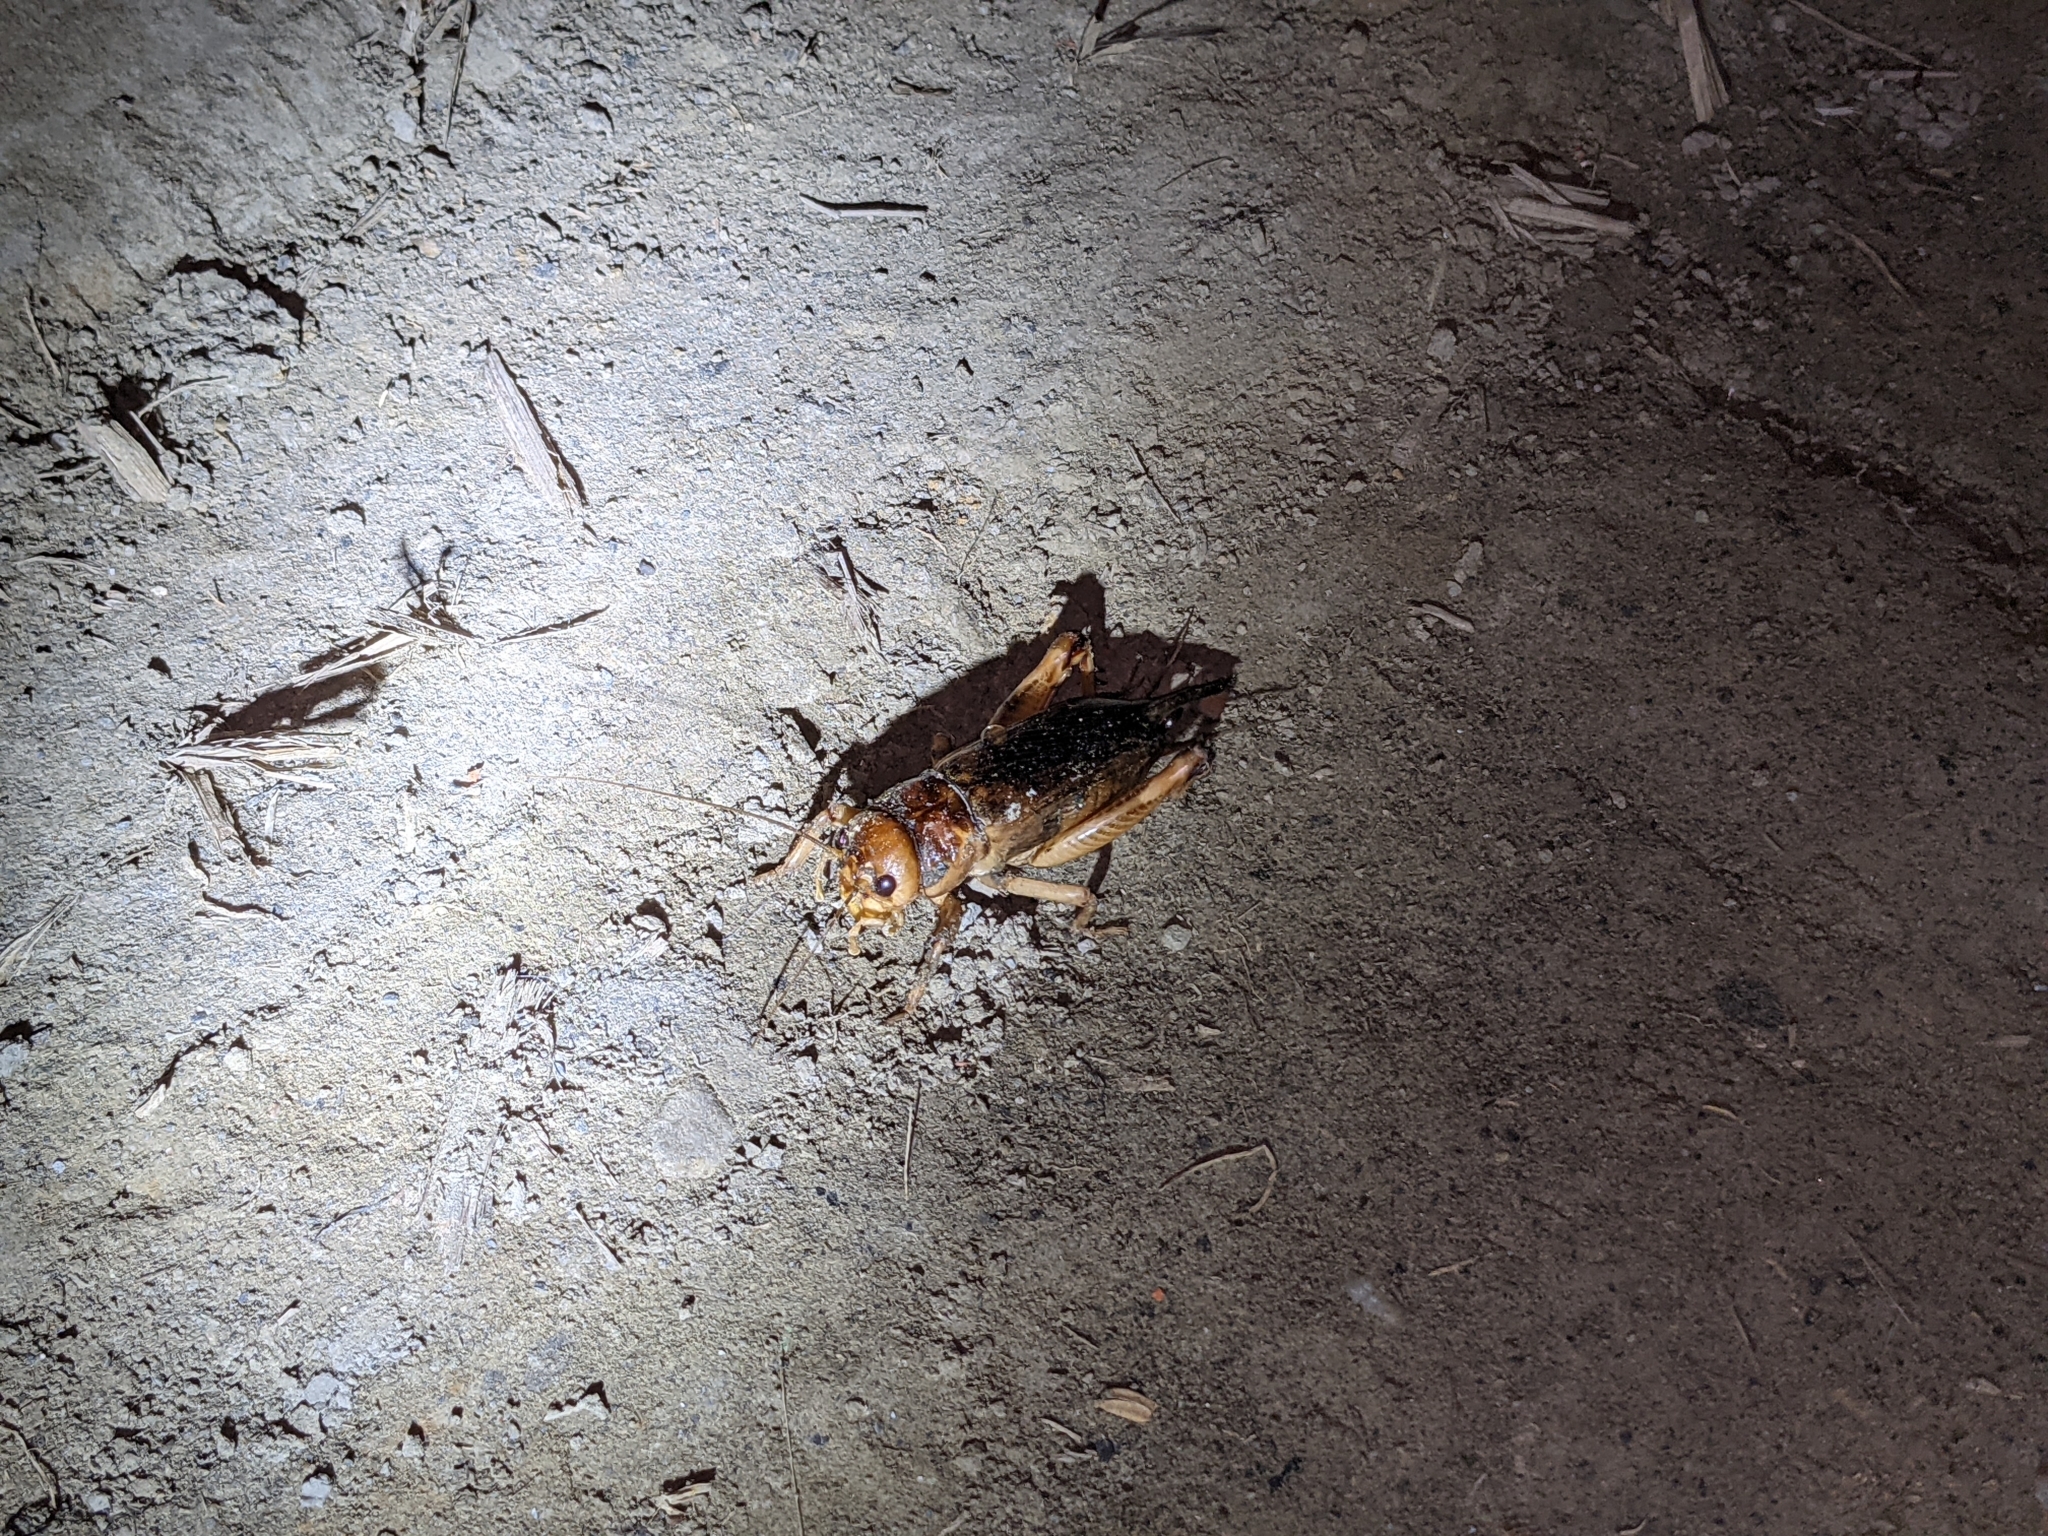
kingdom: Animalia
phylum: Arthropoda
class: Insecta
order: Orthoptera
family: Gryllidae
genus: Tarbinskiellus
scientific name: Tarbinskiellus portentosus
